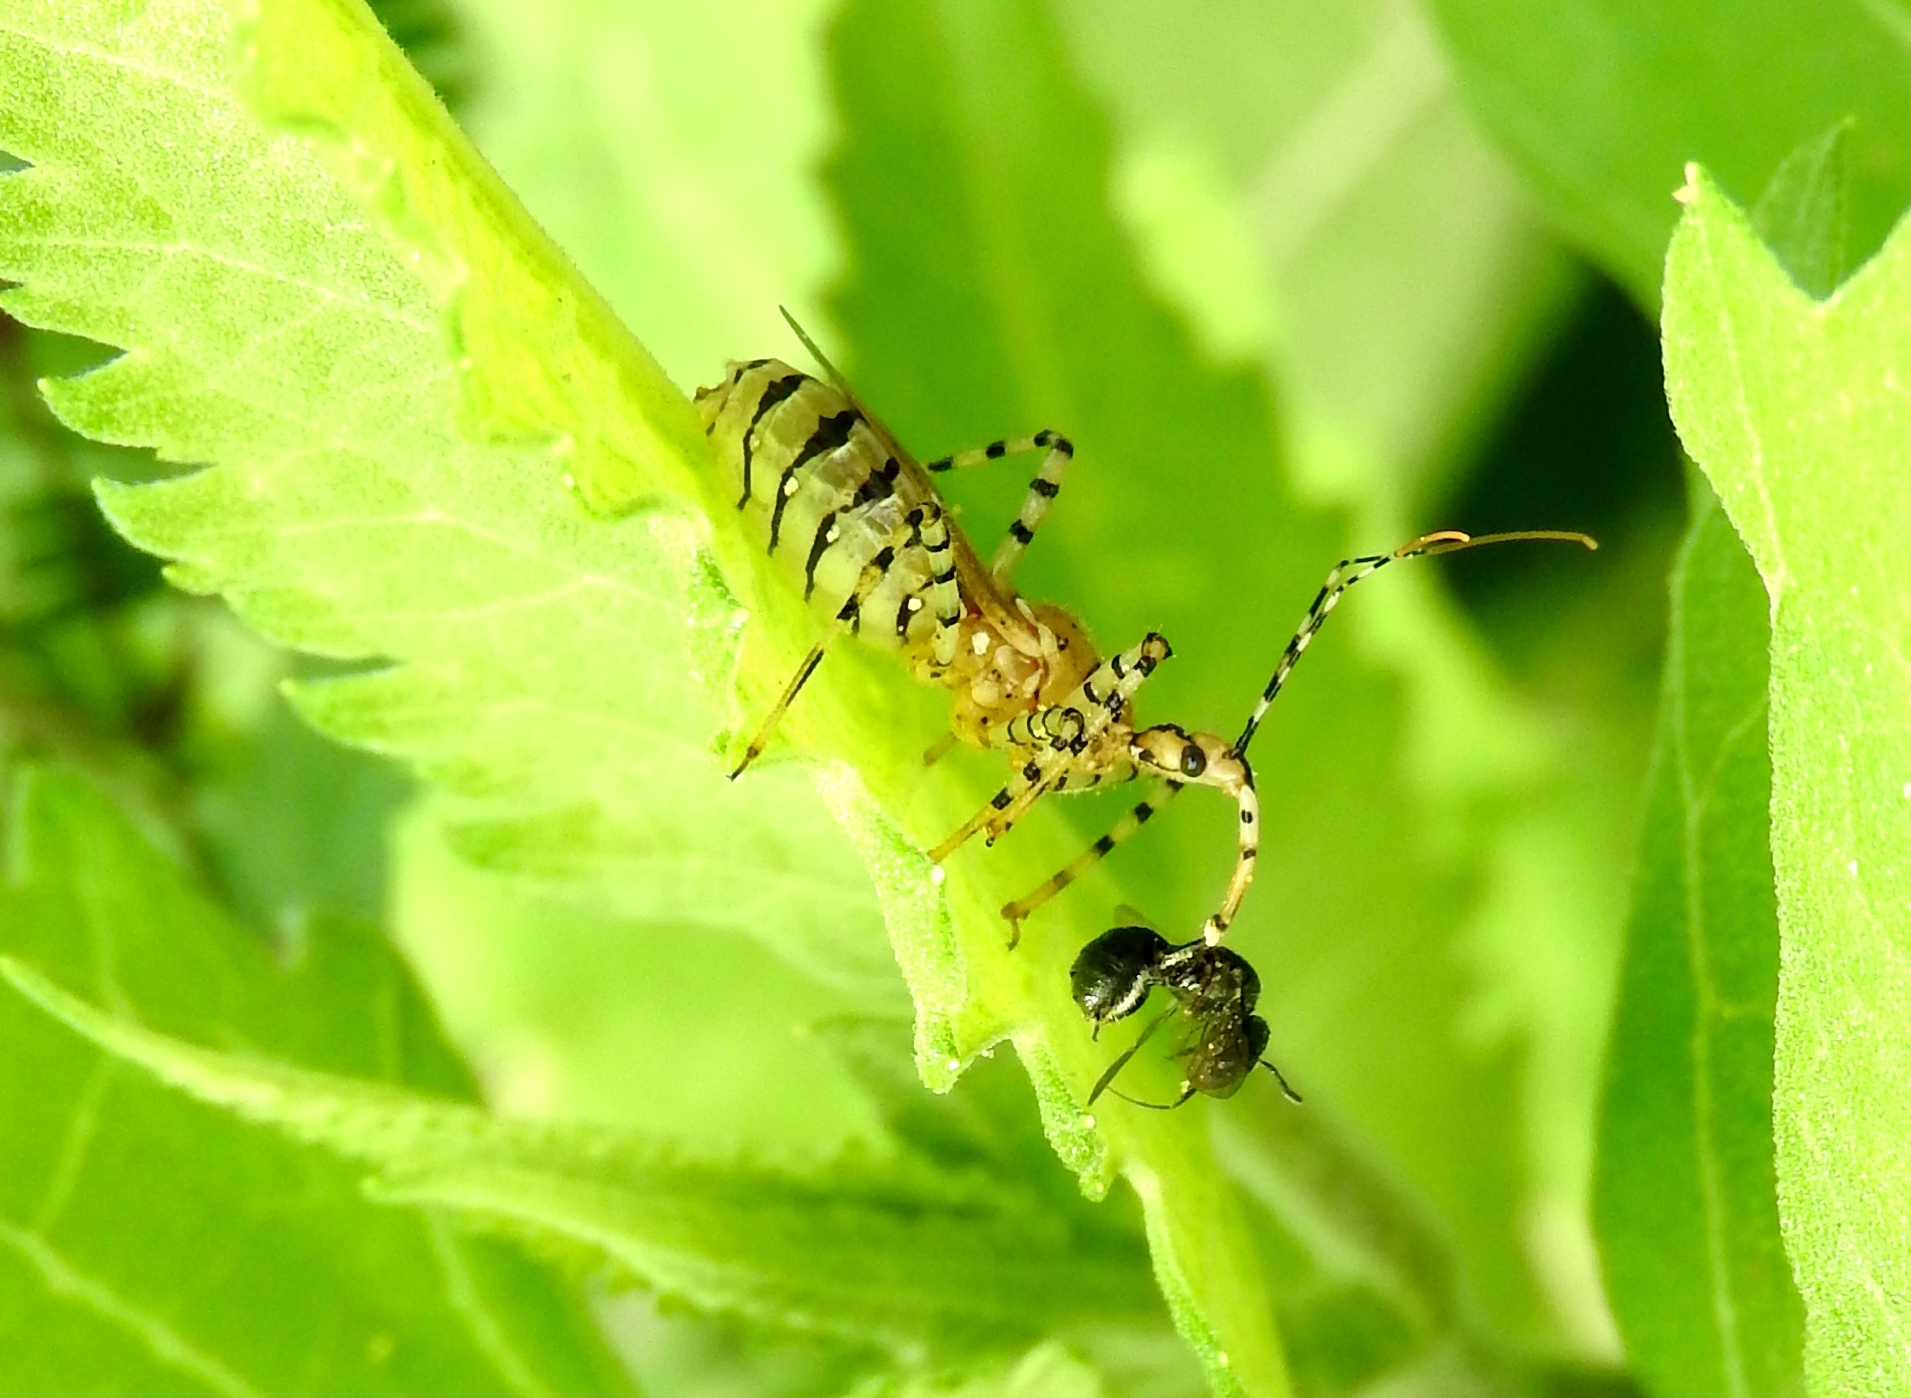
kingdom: Animalia
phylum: Arthropoda
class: Insecta
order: Hemiptera
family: Reduviidae
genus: Pselliopus
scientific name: Pselliopus
